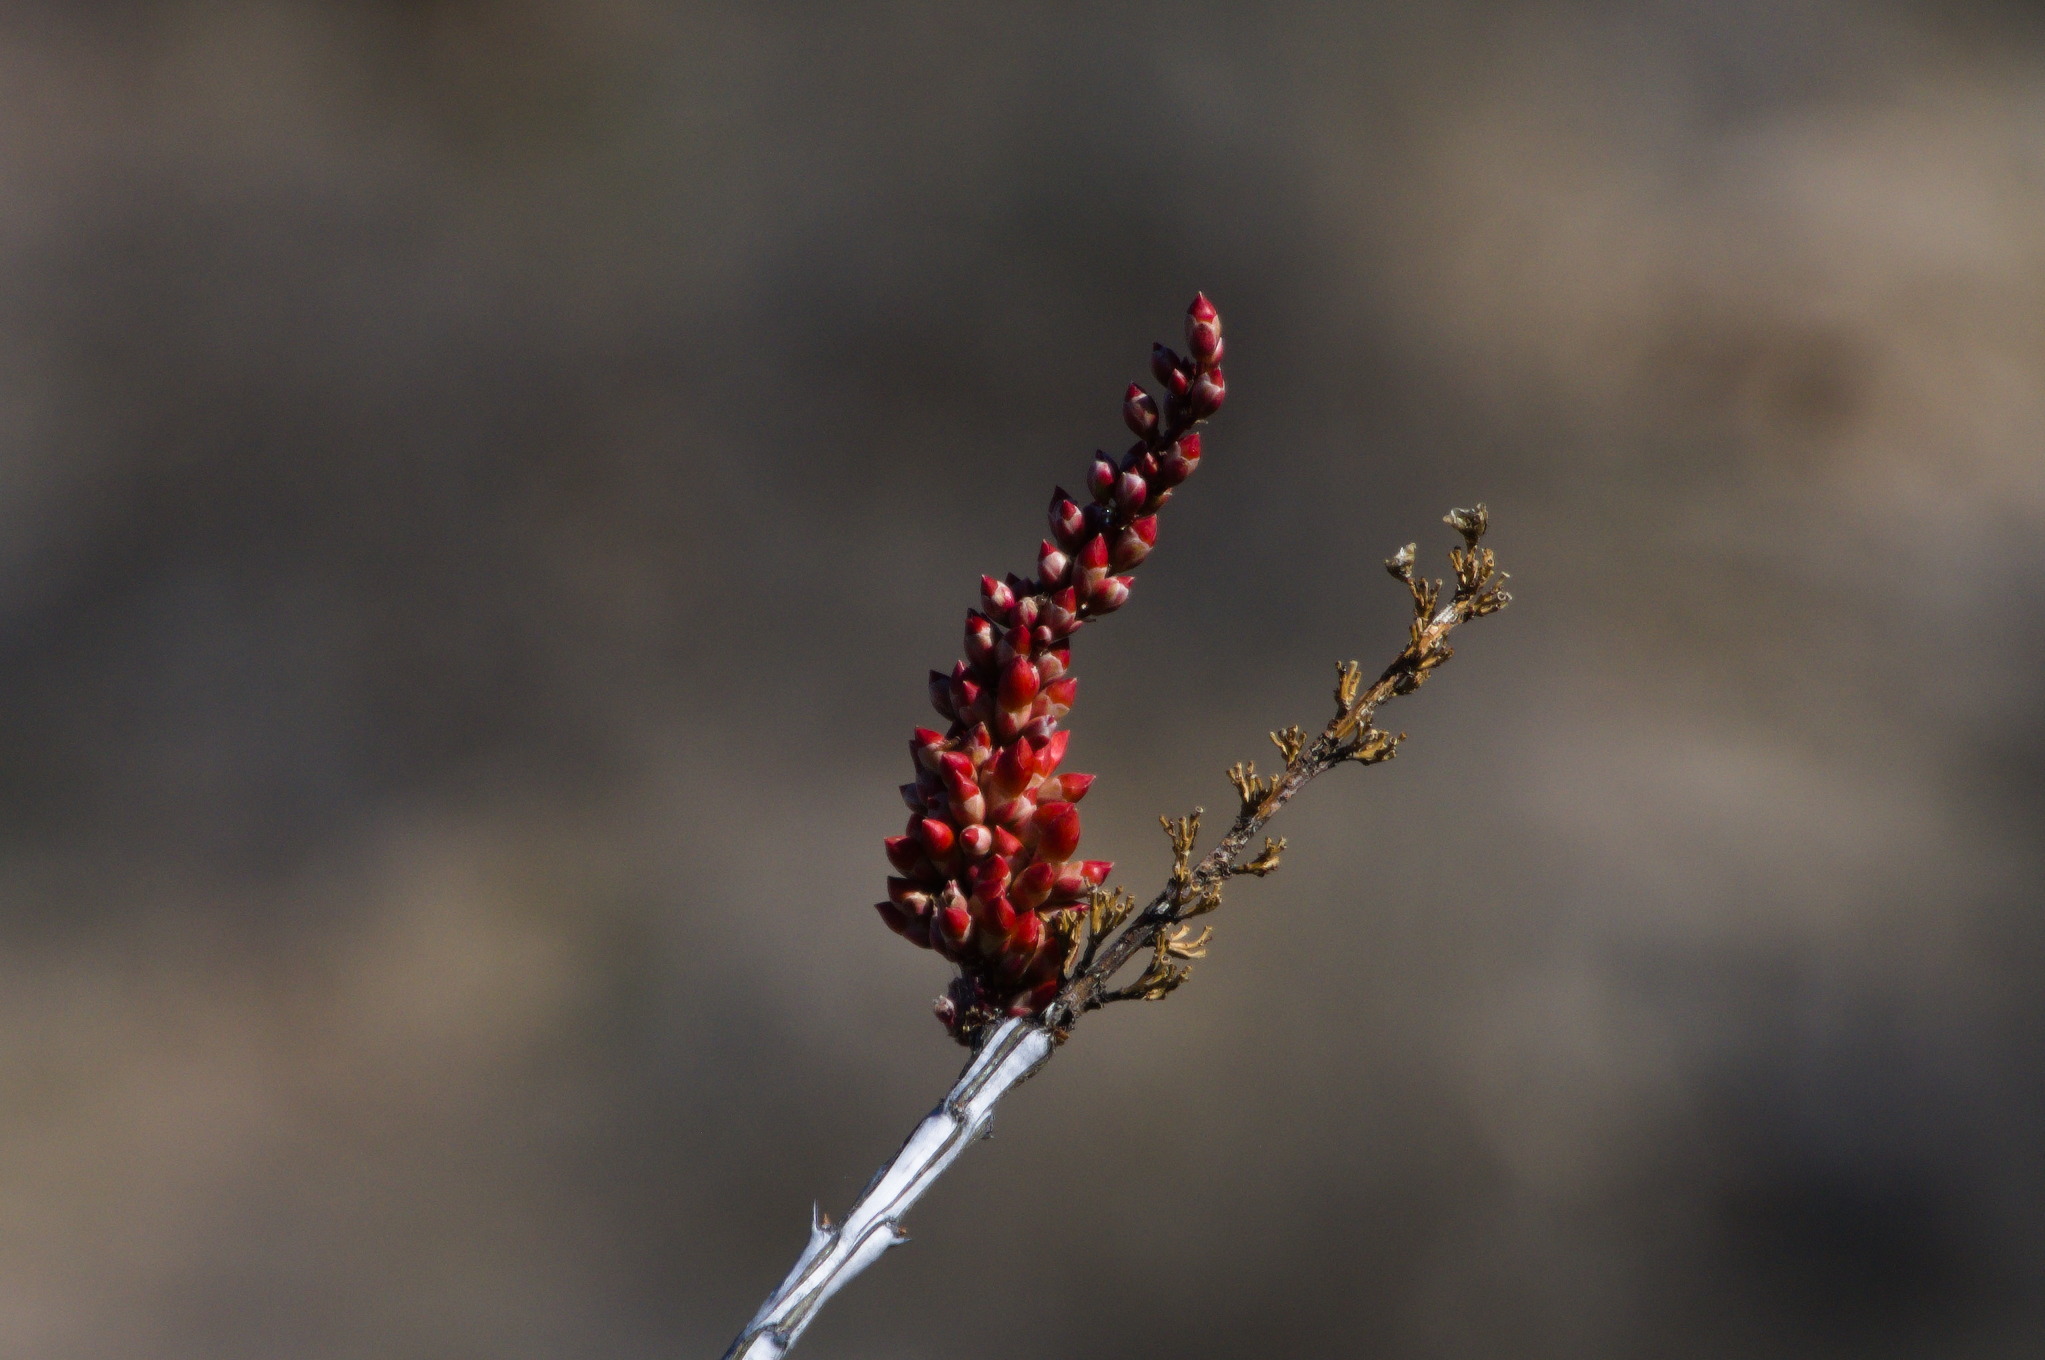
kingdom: Plantae
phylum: Tracheophyta
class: Magnoliopsida
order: Ericales
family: Fouquieriaceae
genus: Fouquieria
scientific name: Fouquieria splendens
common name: Vine-cactus
